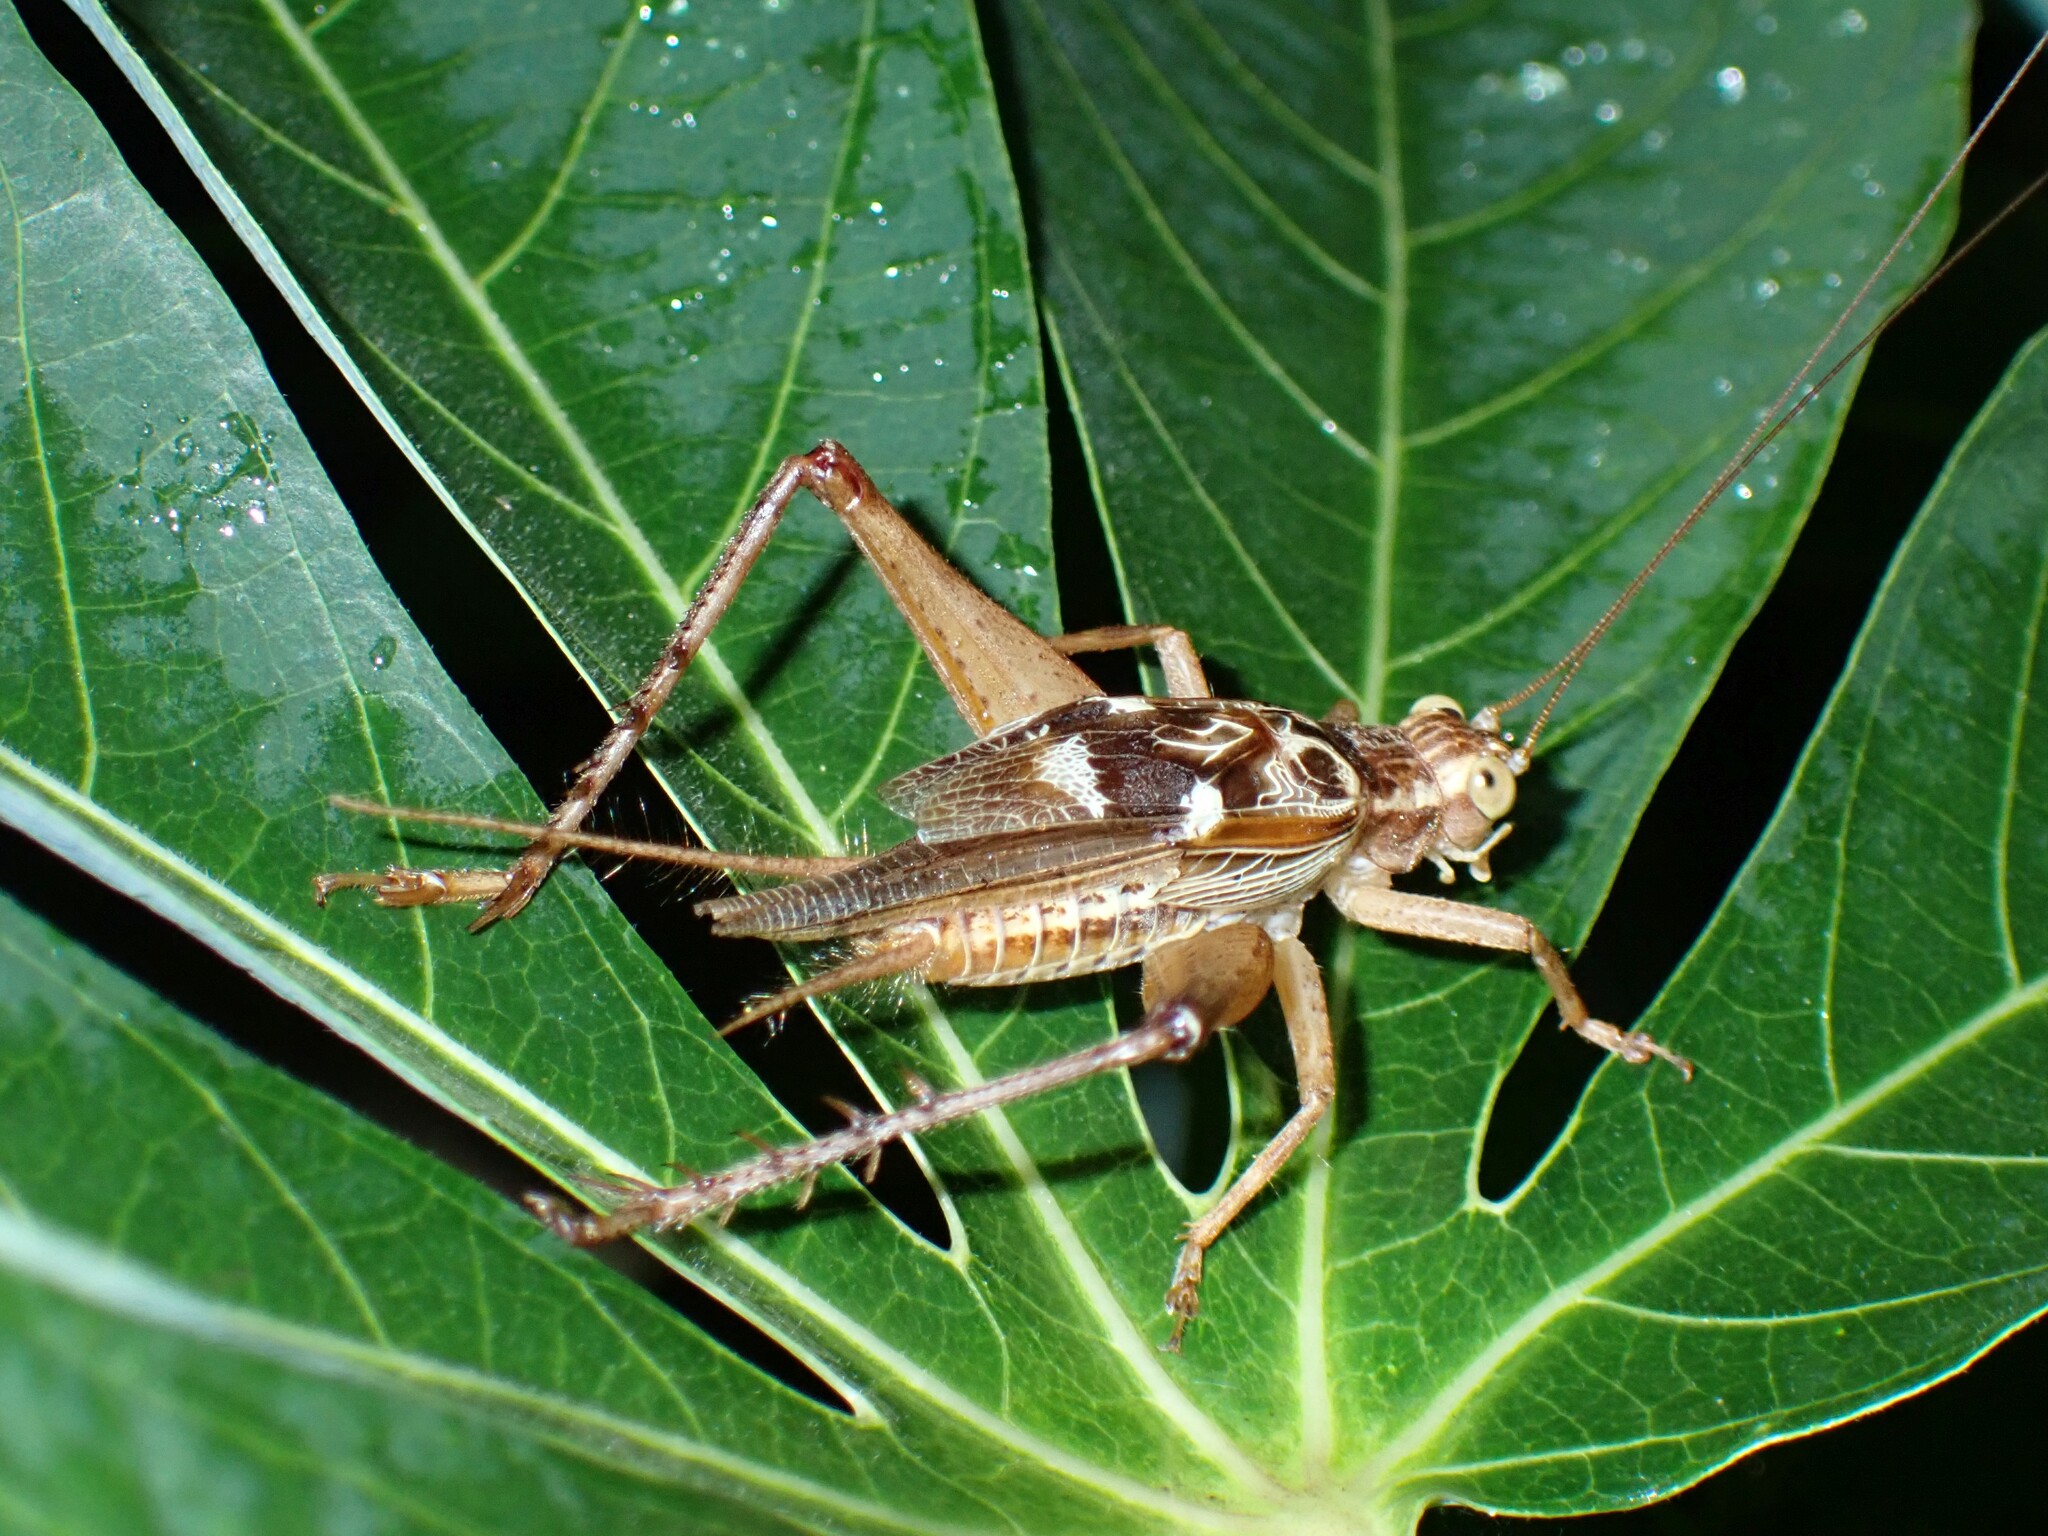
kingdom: Animalia
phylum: Arthropoda
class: Insecta
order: Orthoptera
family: Gryllidae
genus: Cardiodactylus
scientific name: Cardiodactylus novaeguineae
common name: Sad cricket
